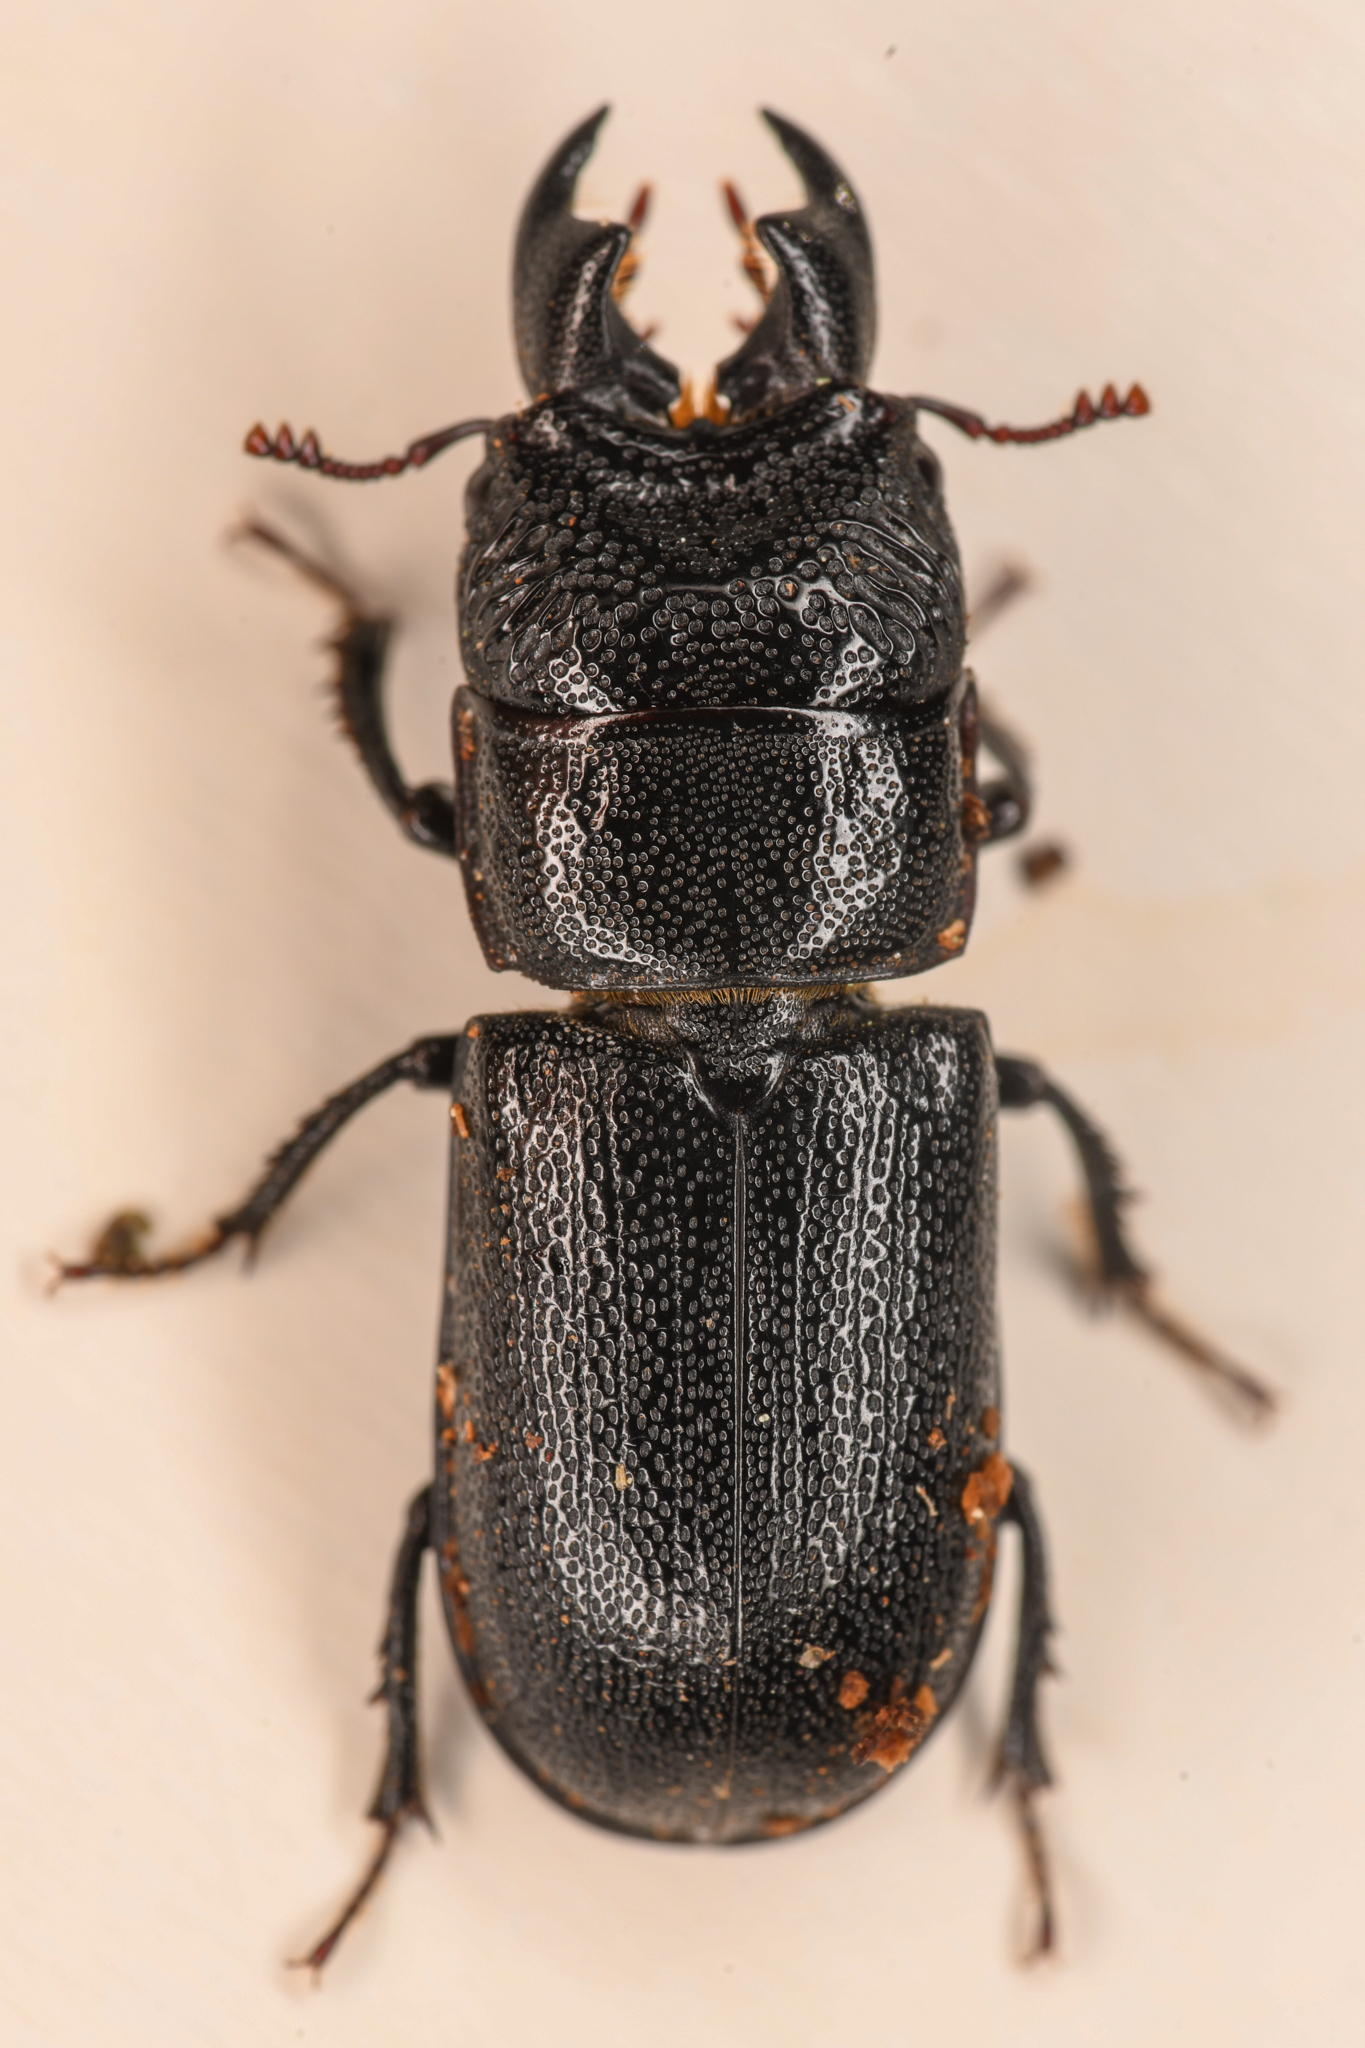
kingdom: Animalia
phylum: Arthropoda
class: Insecta
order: Coleoptera
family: Lucanidae
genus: Ceruchus
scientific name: Ceruchus punctatus
